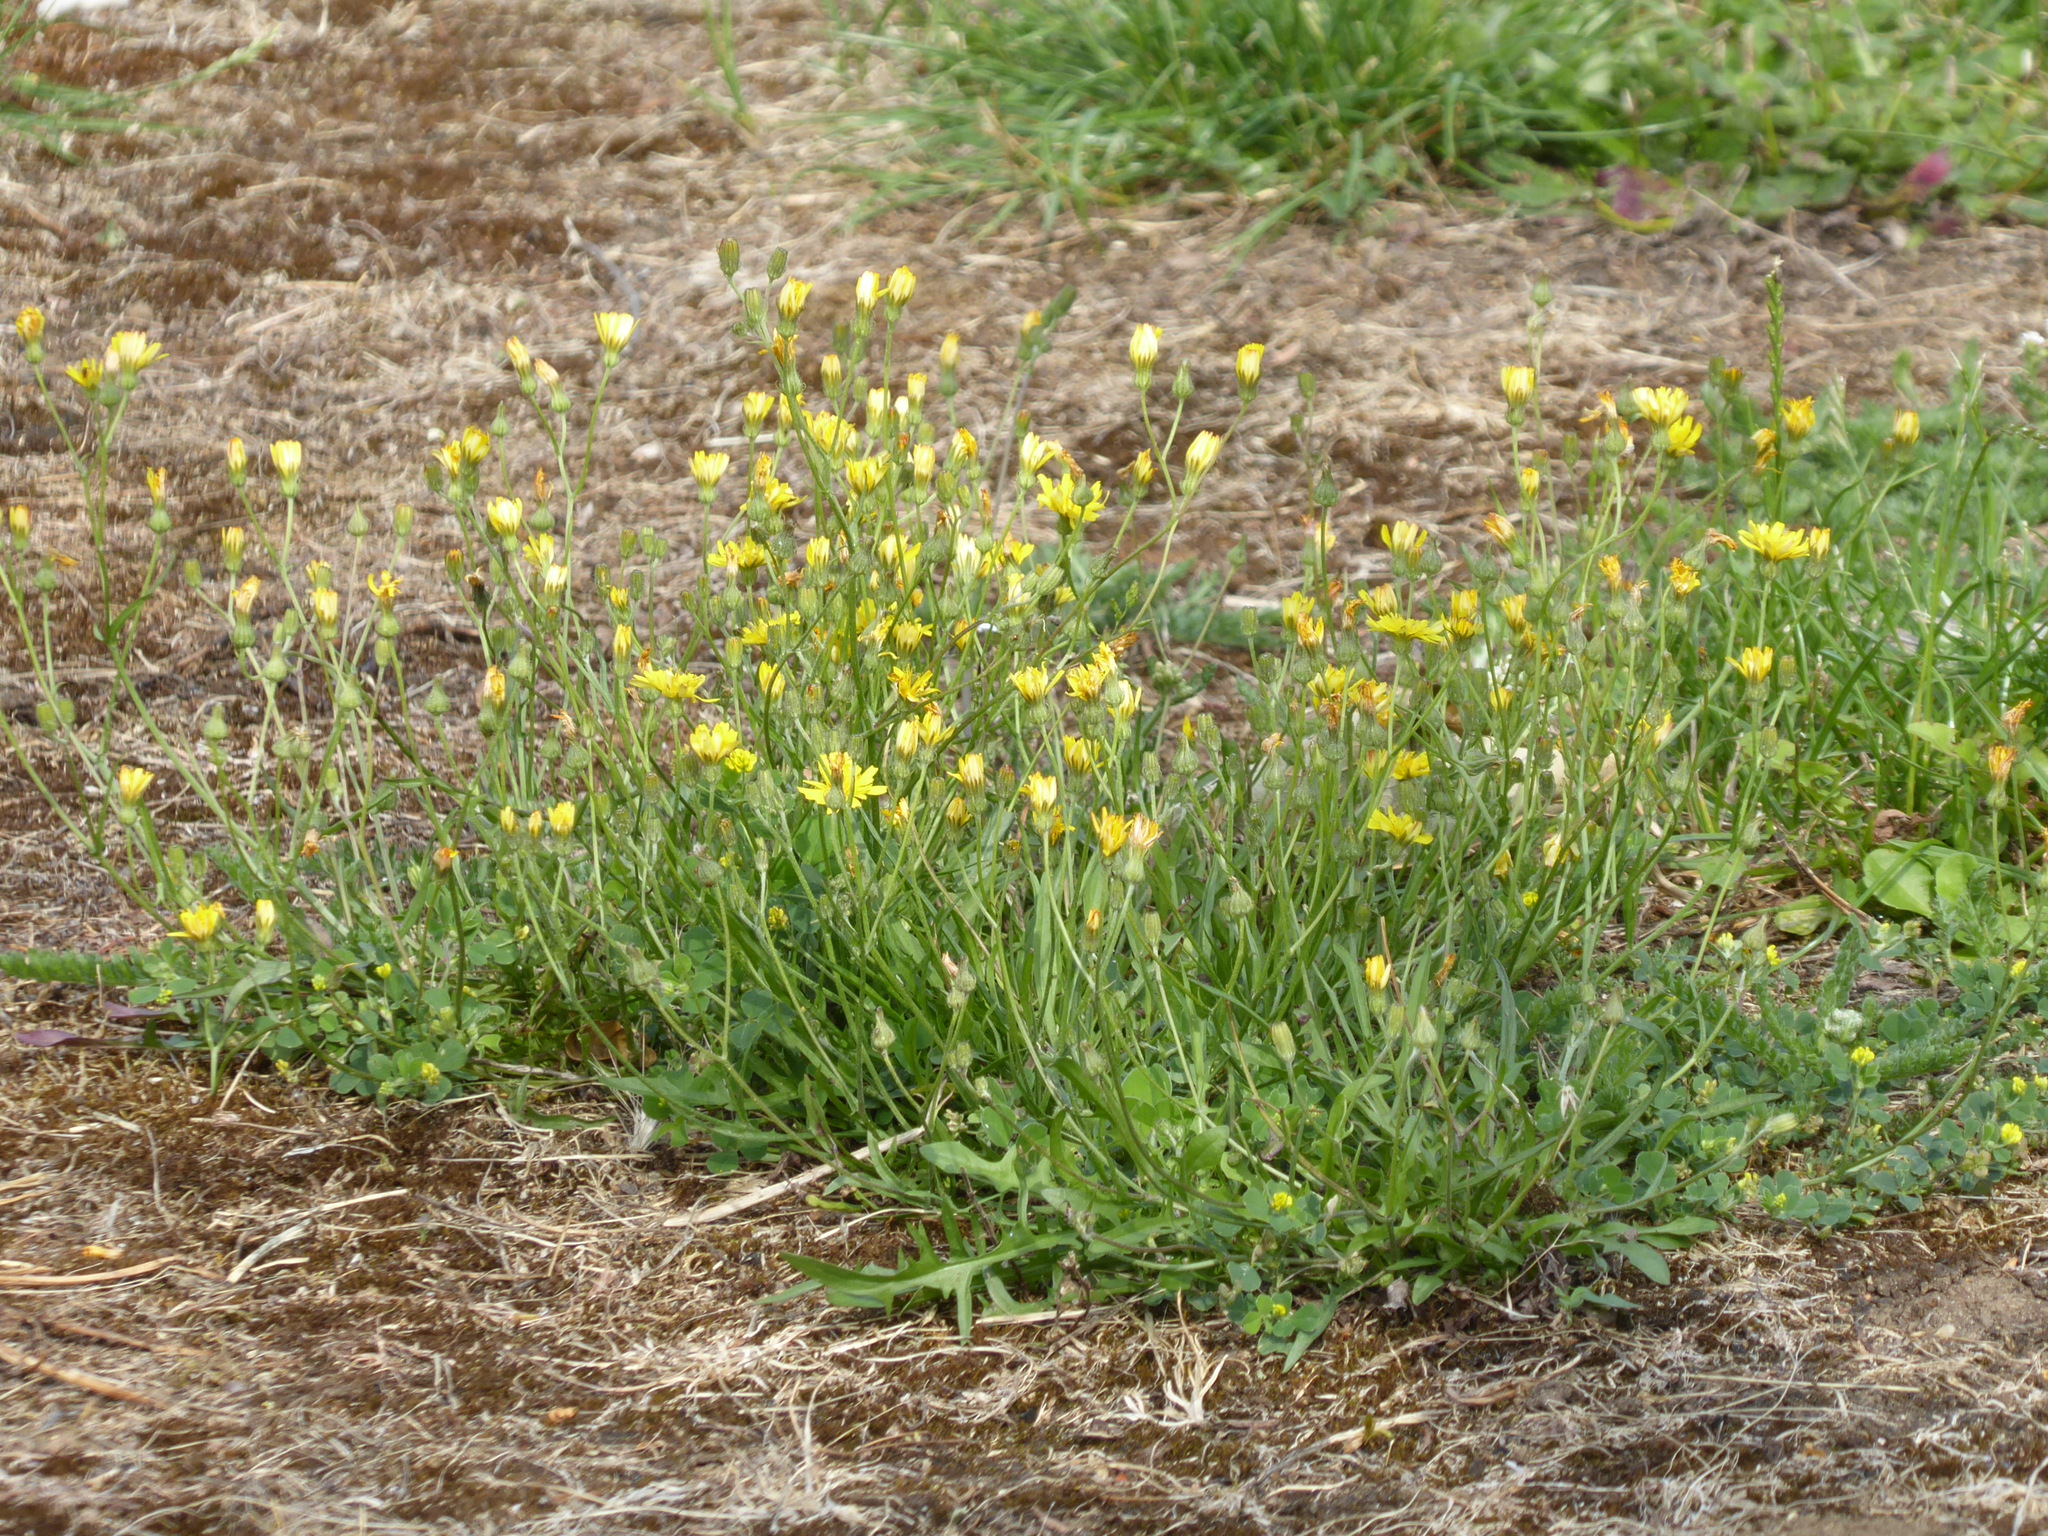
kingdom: Plantae
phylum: Tracheophyta
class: Magnoliopsida
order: Asterales
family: Asteraceae
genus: Crepis
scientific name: Crepis capillaris
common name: Smooth hawksbeard
